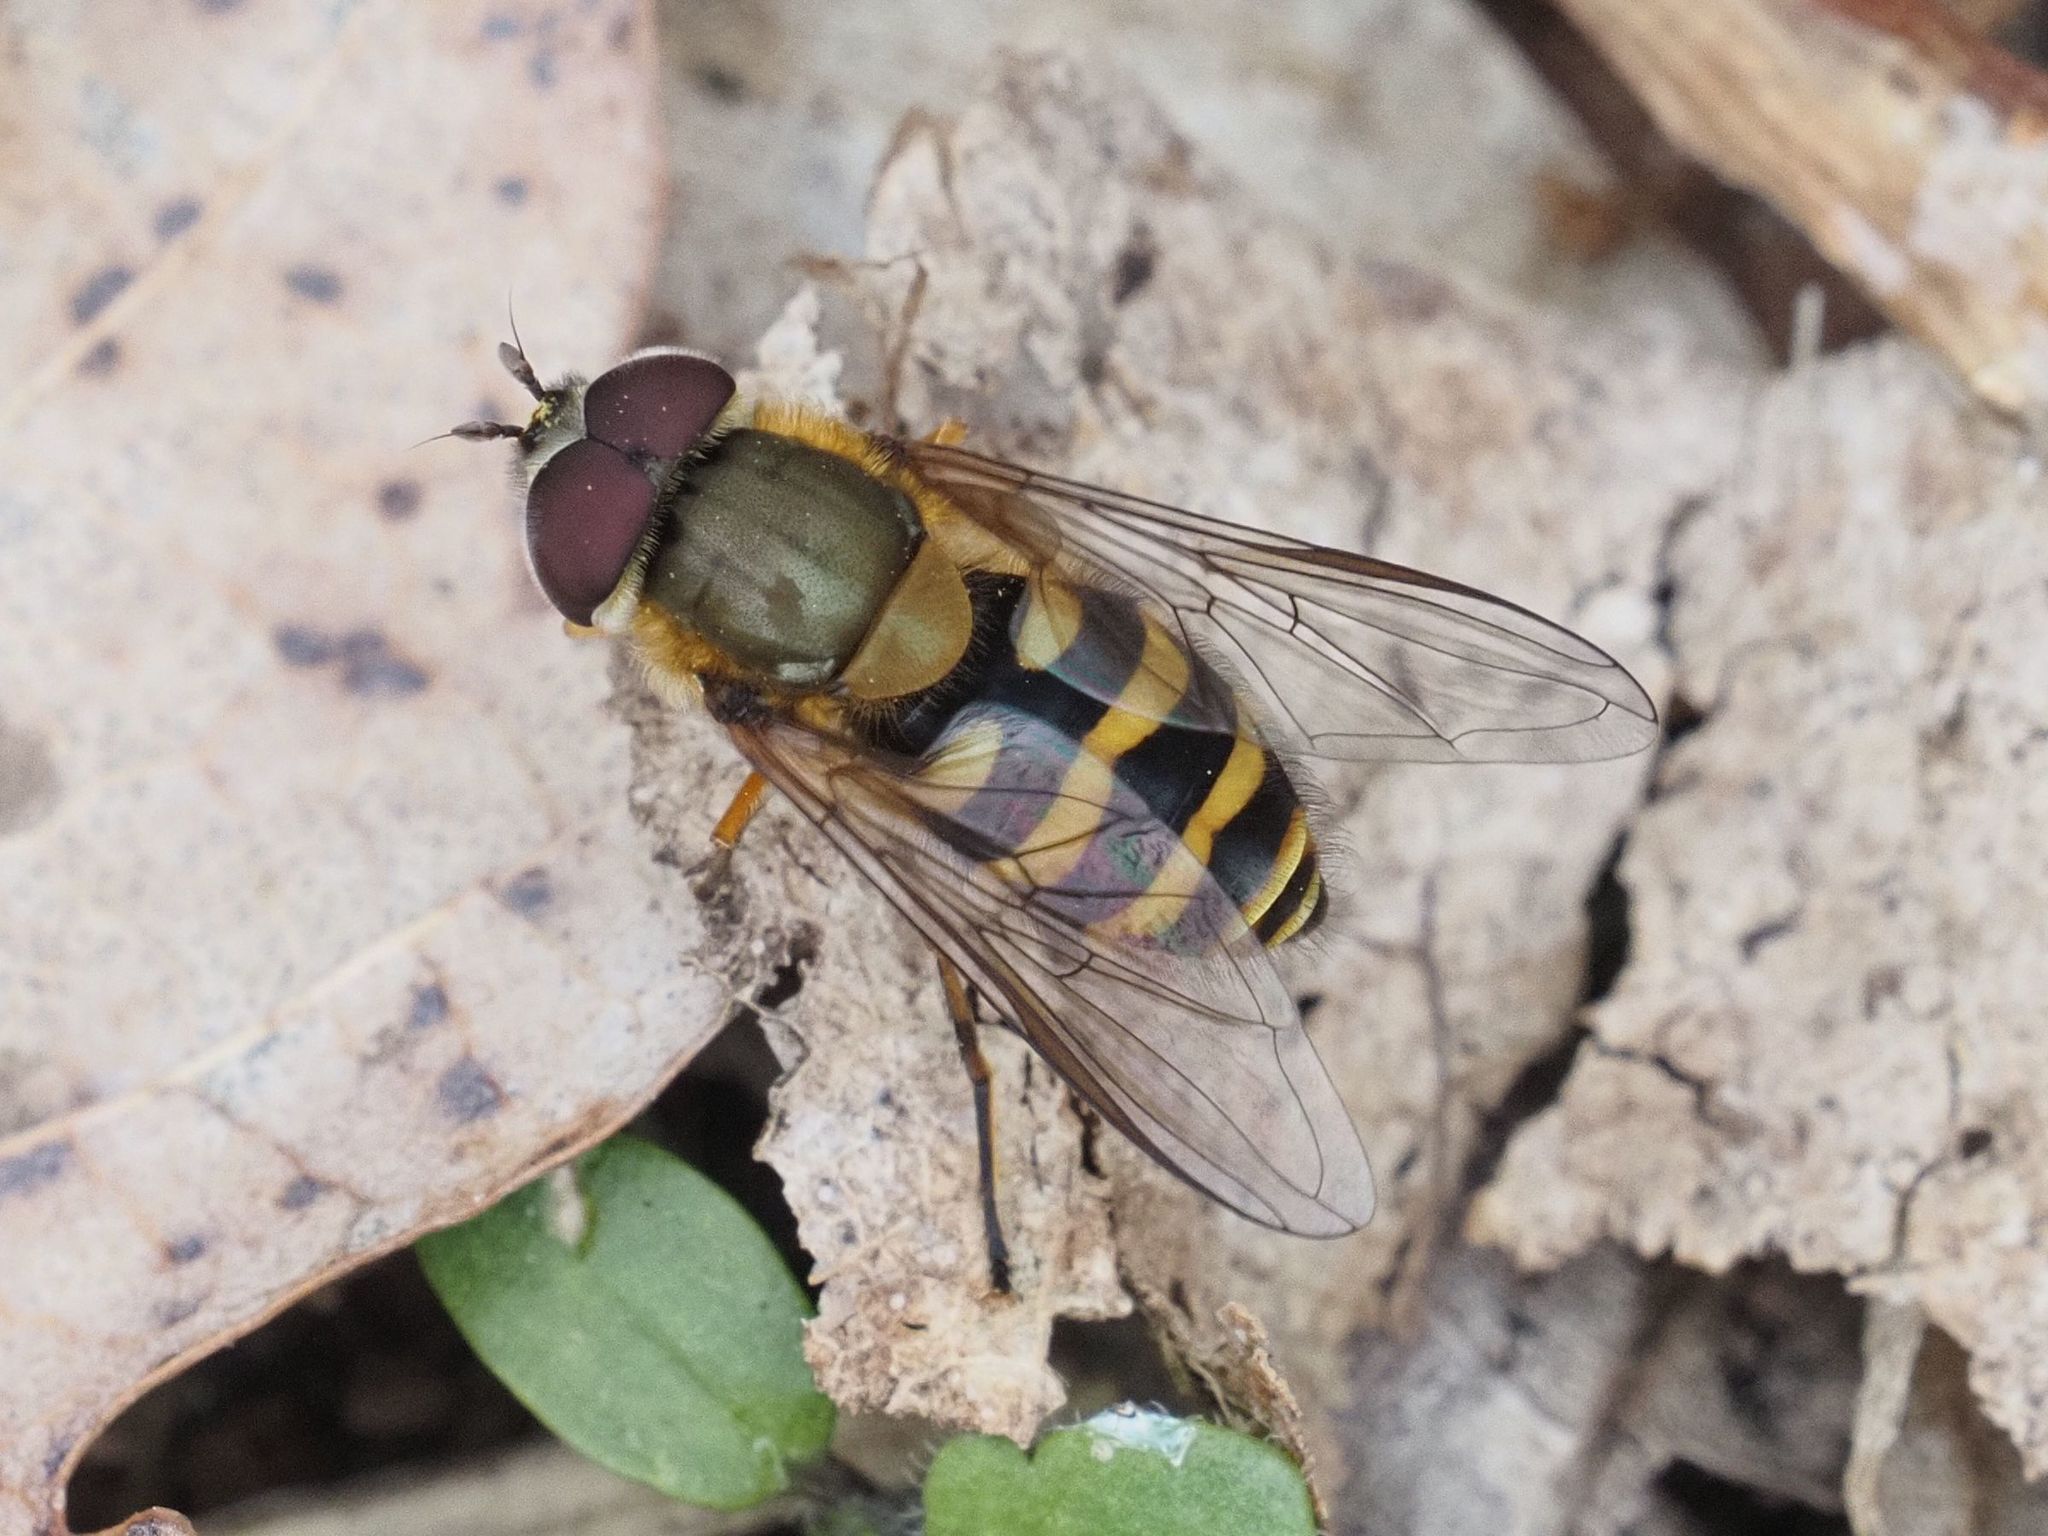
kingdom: Animalia
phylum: Arthropoda
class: Insecta
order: Diptera
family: Syrphidae
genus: Syrphus
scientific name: Syrphus torvus
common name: Hairy-eyed flower fly
